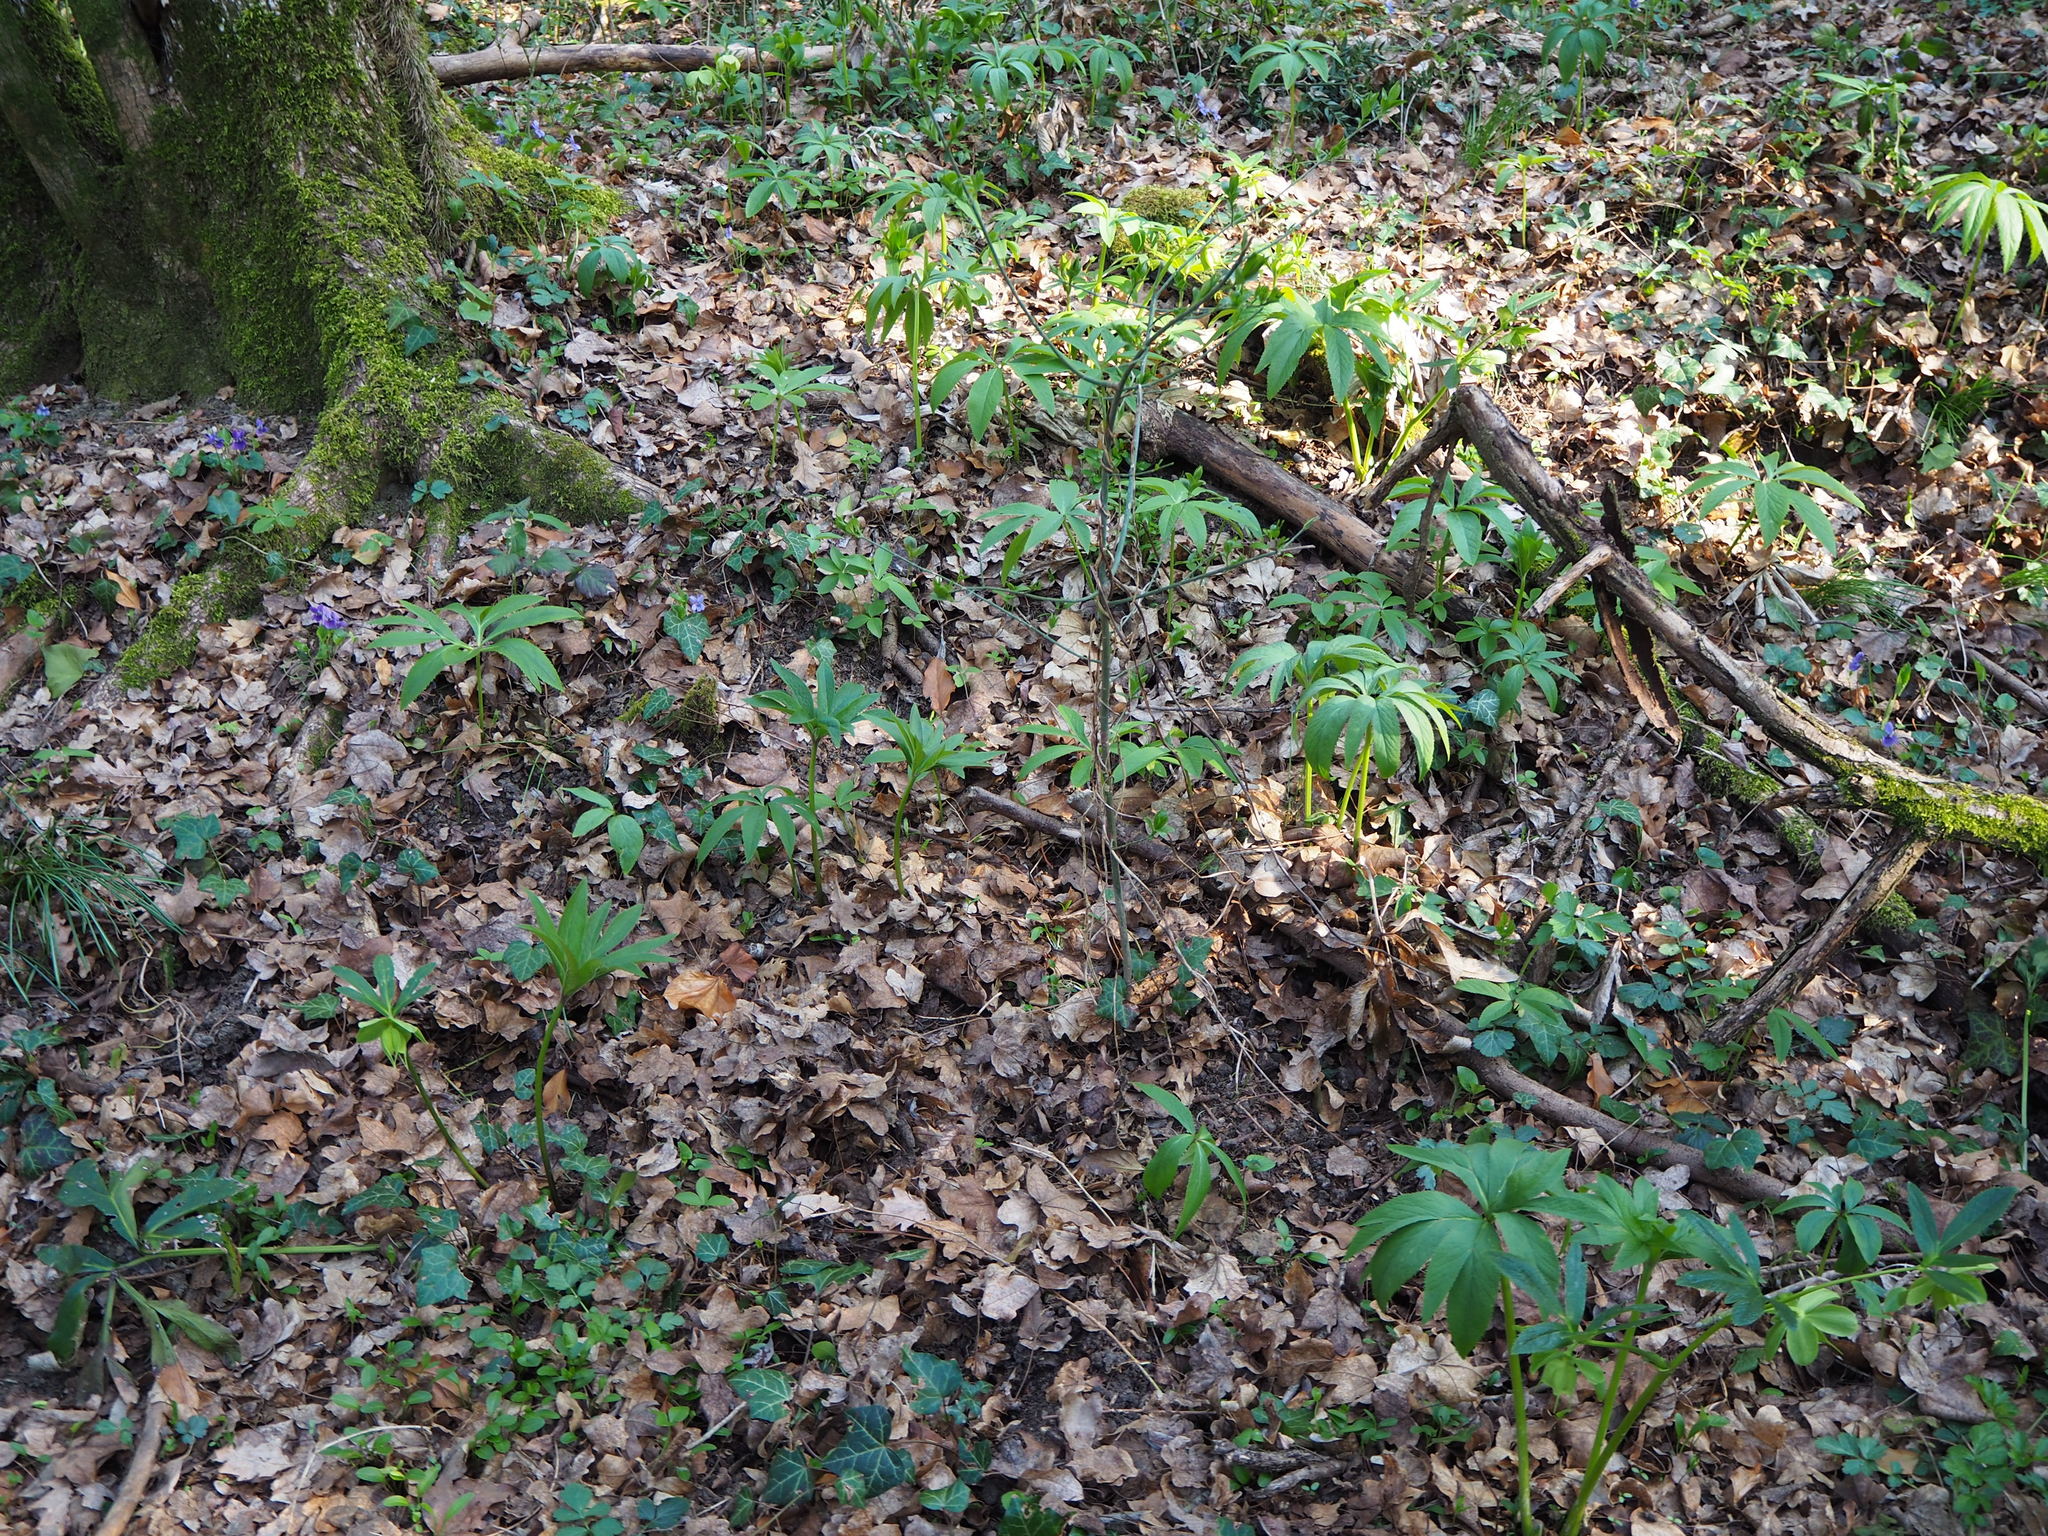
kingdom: Plantae
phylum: Tracheophyta
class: Magnoliopsida
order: Ranunculales
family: Ranunculaceae
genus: Helleborus
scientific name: Helleborus viridis
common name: Green hellebore
